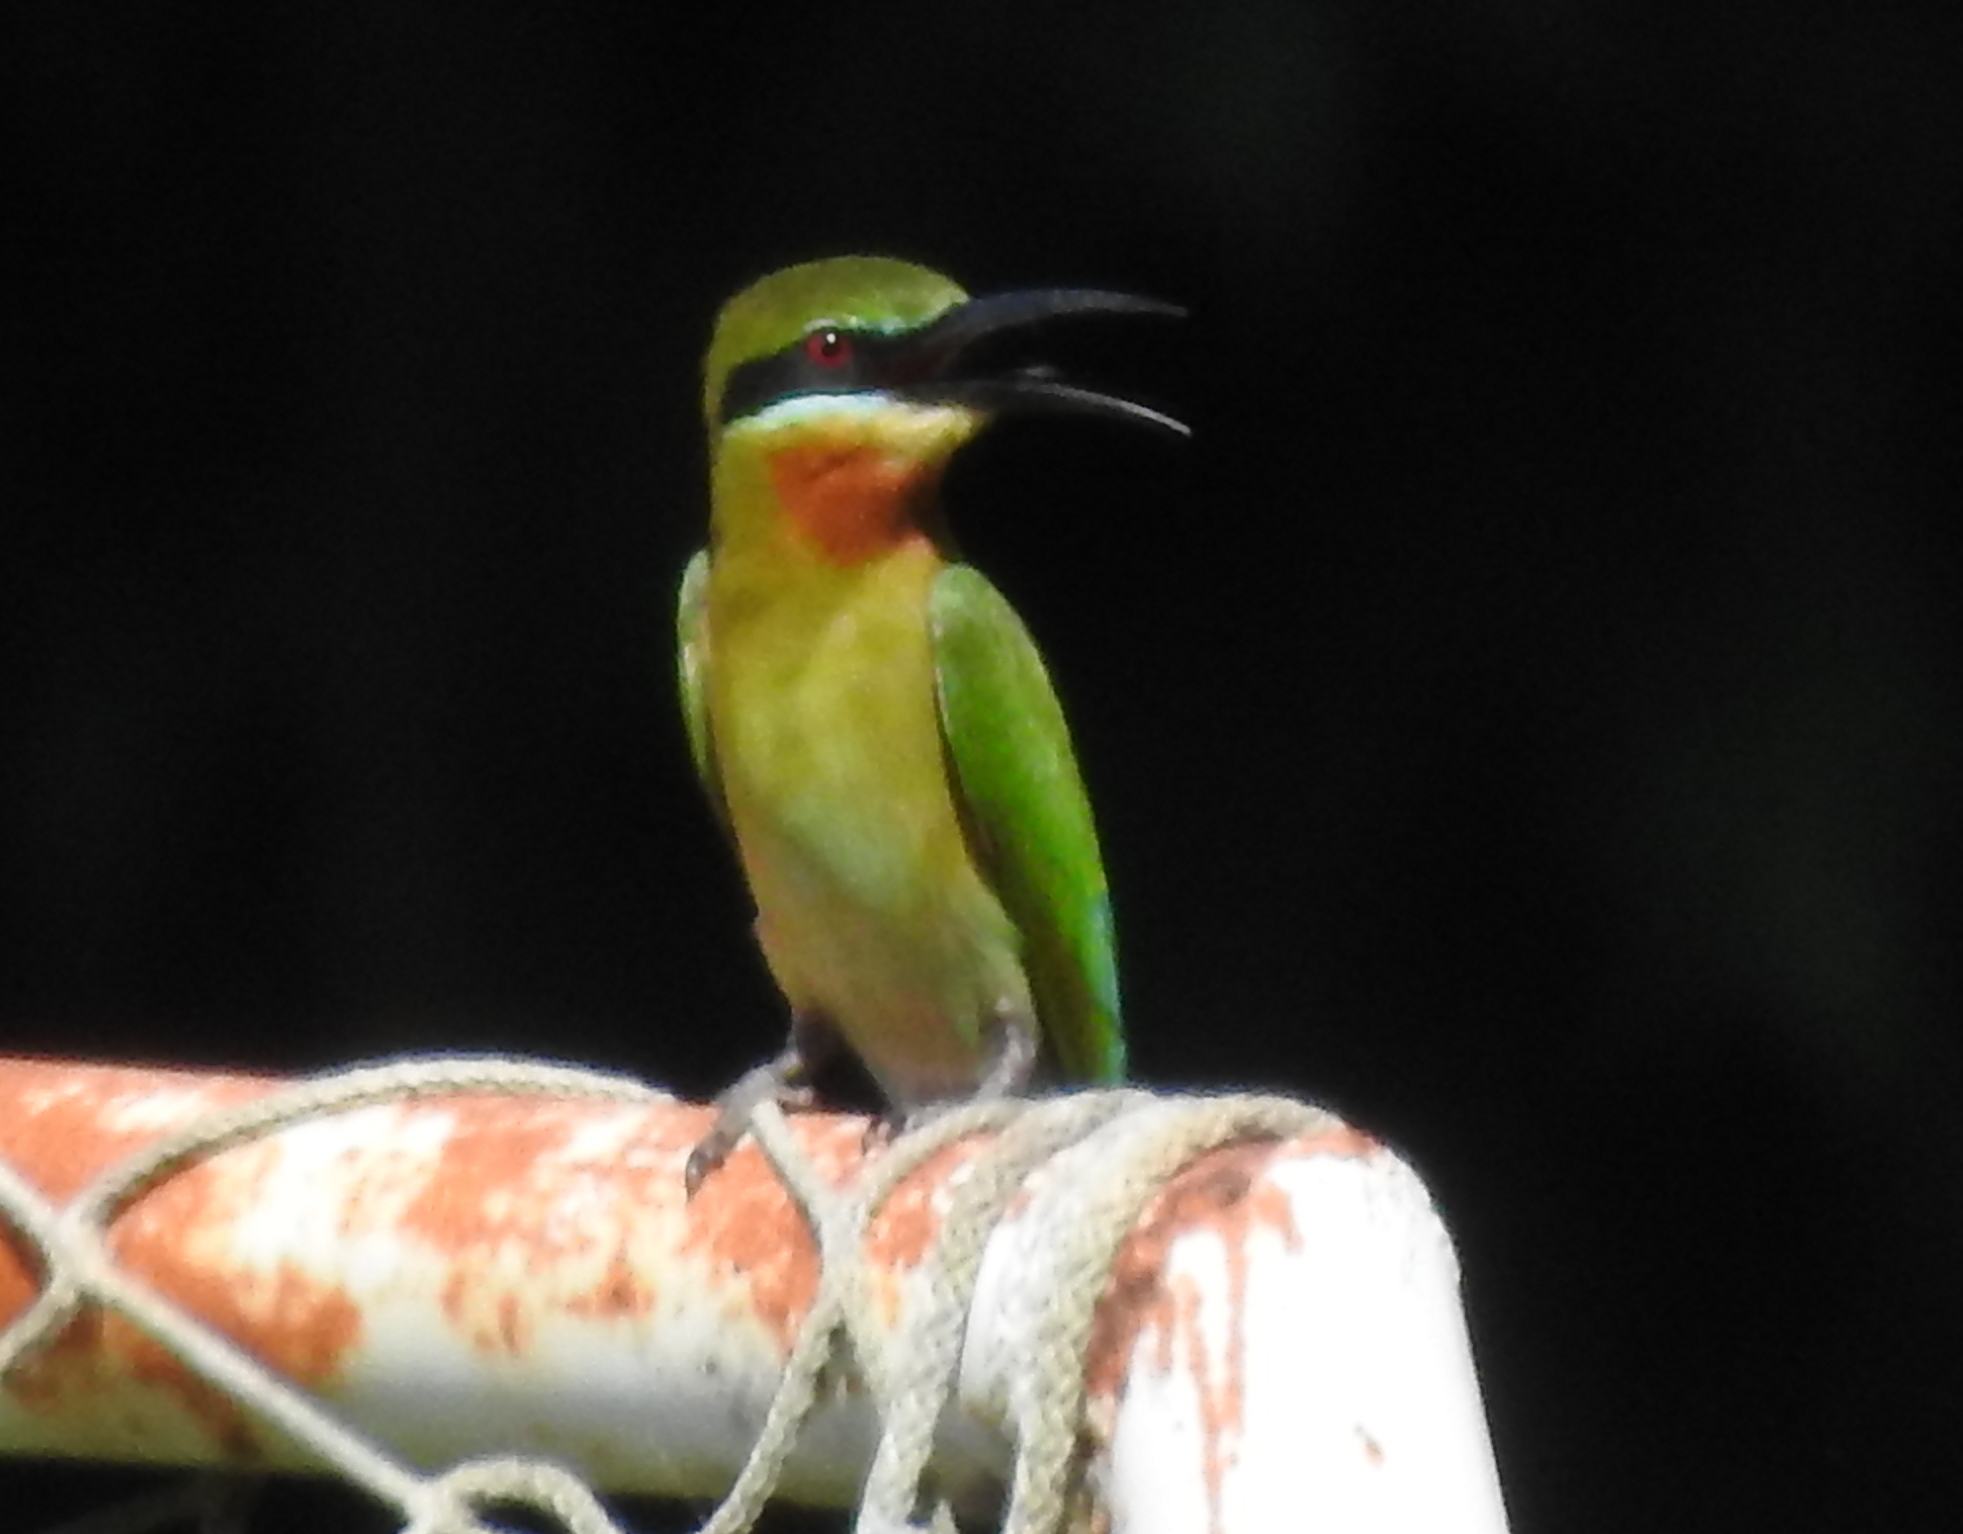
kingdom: Animalia
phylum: Chordata
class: Aves
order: Coraciiformes
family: Meropidae
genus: Merops
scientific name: Merops philippinus
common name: Blue-tailed bee-eater
